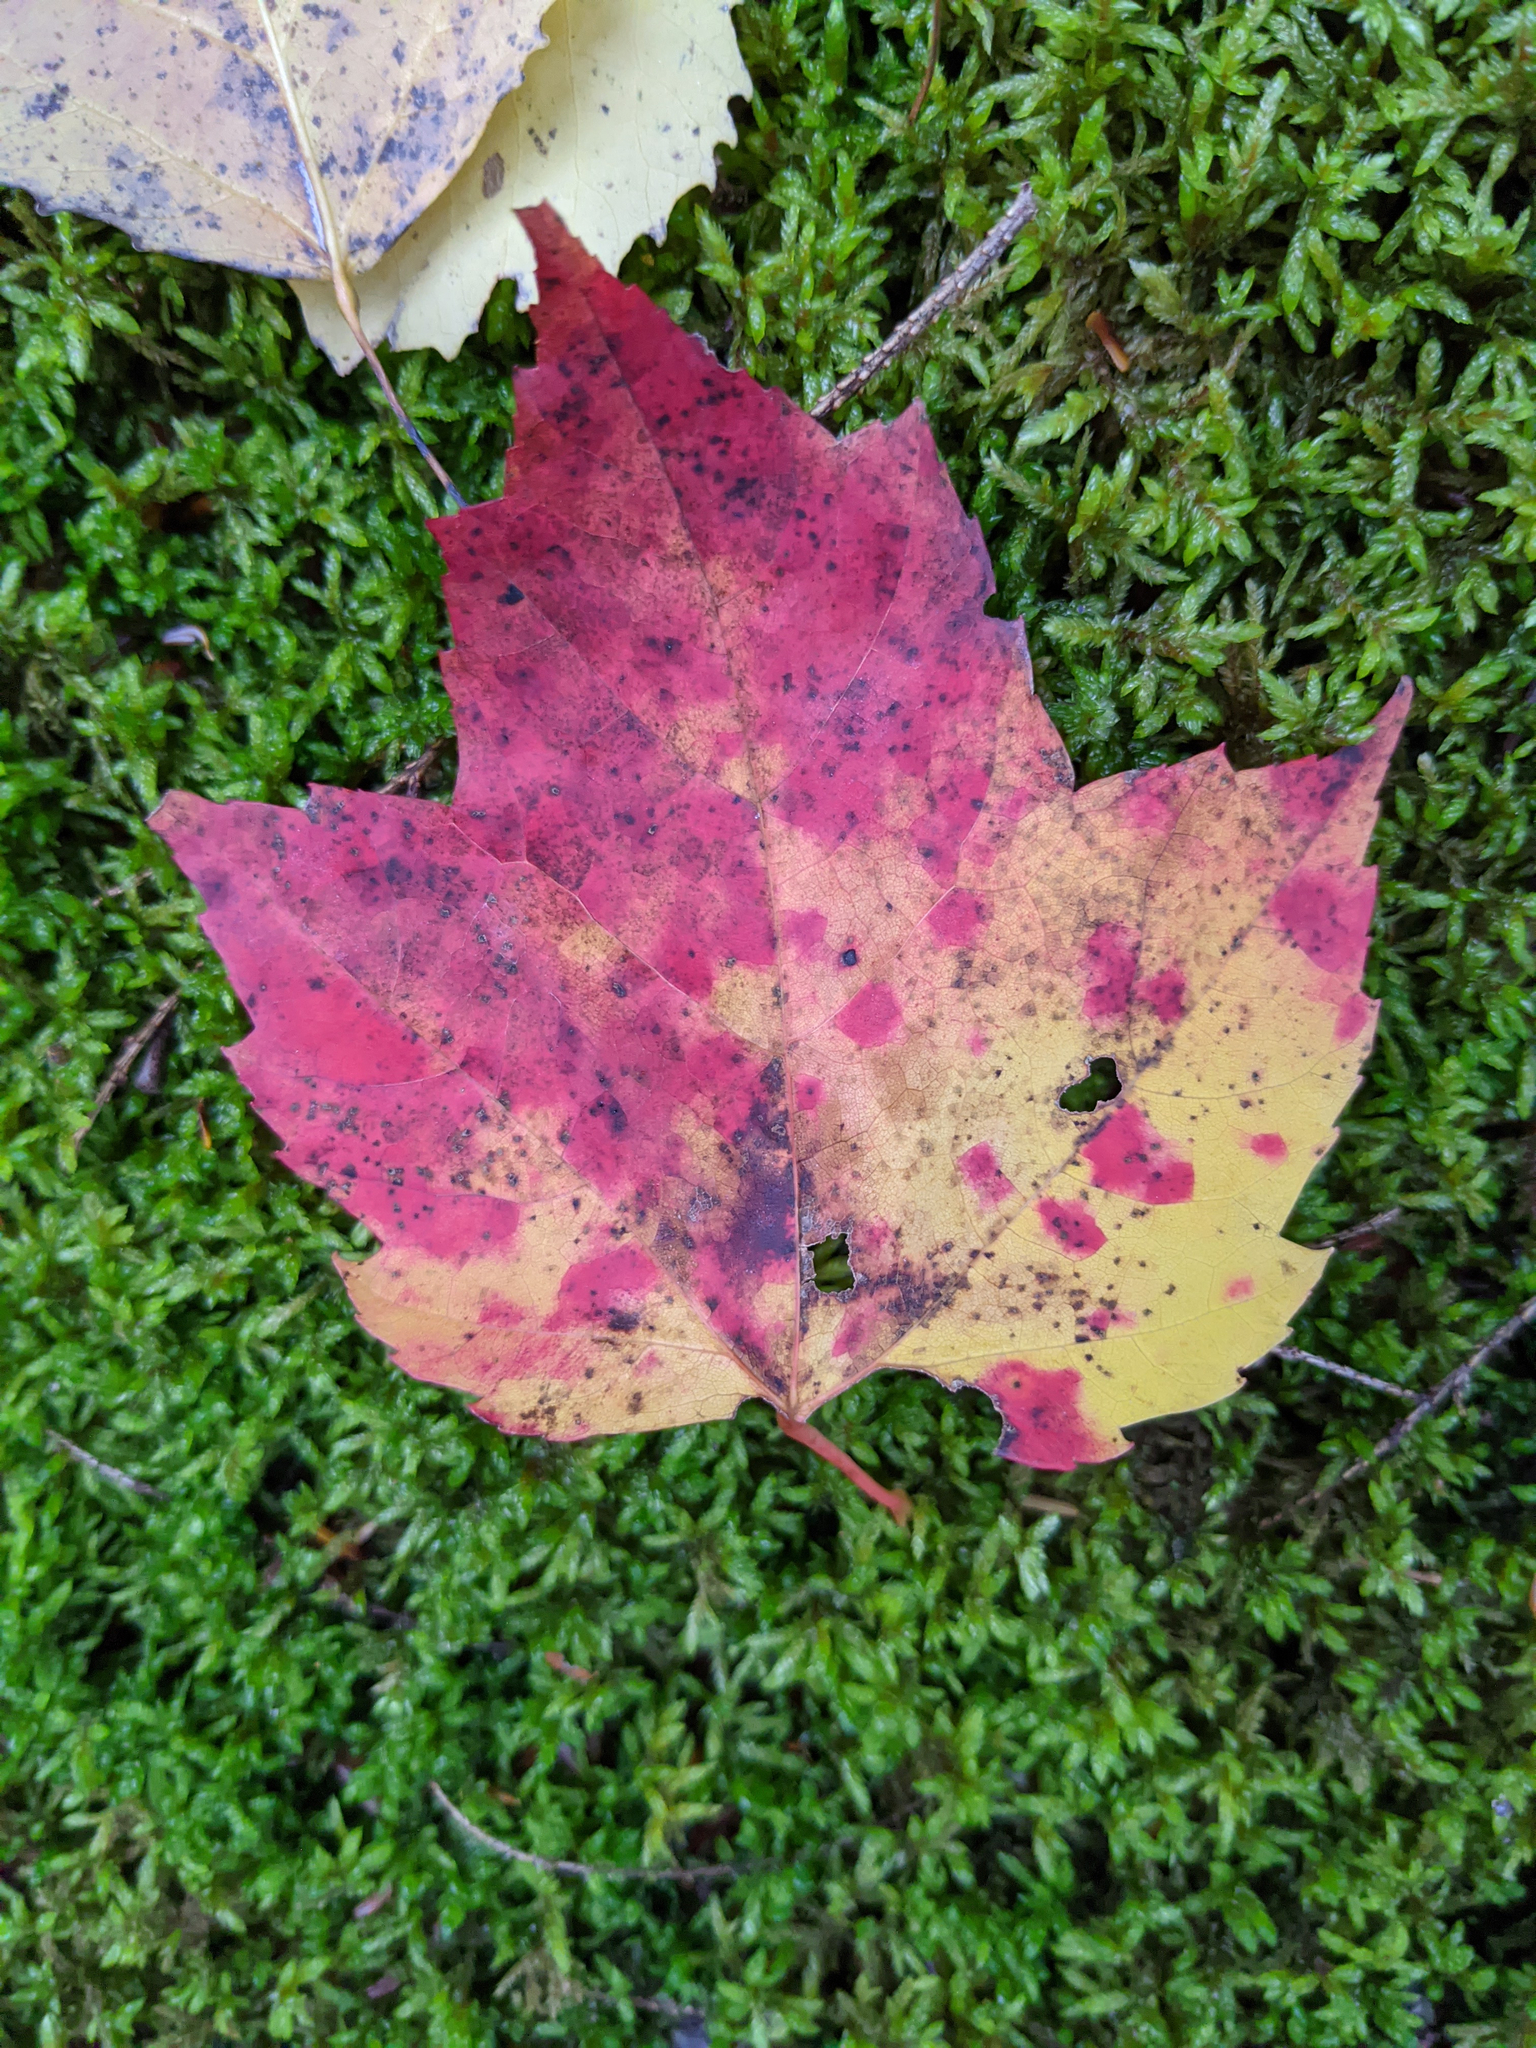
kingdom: Plantae
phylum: Tracheophyta
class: Magnoliopsida
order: Sapindales
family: Sapindaceae
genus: Acer
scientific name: Acer rubrum
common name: Red maple
